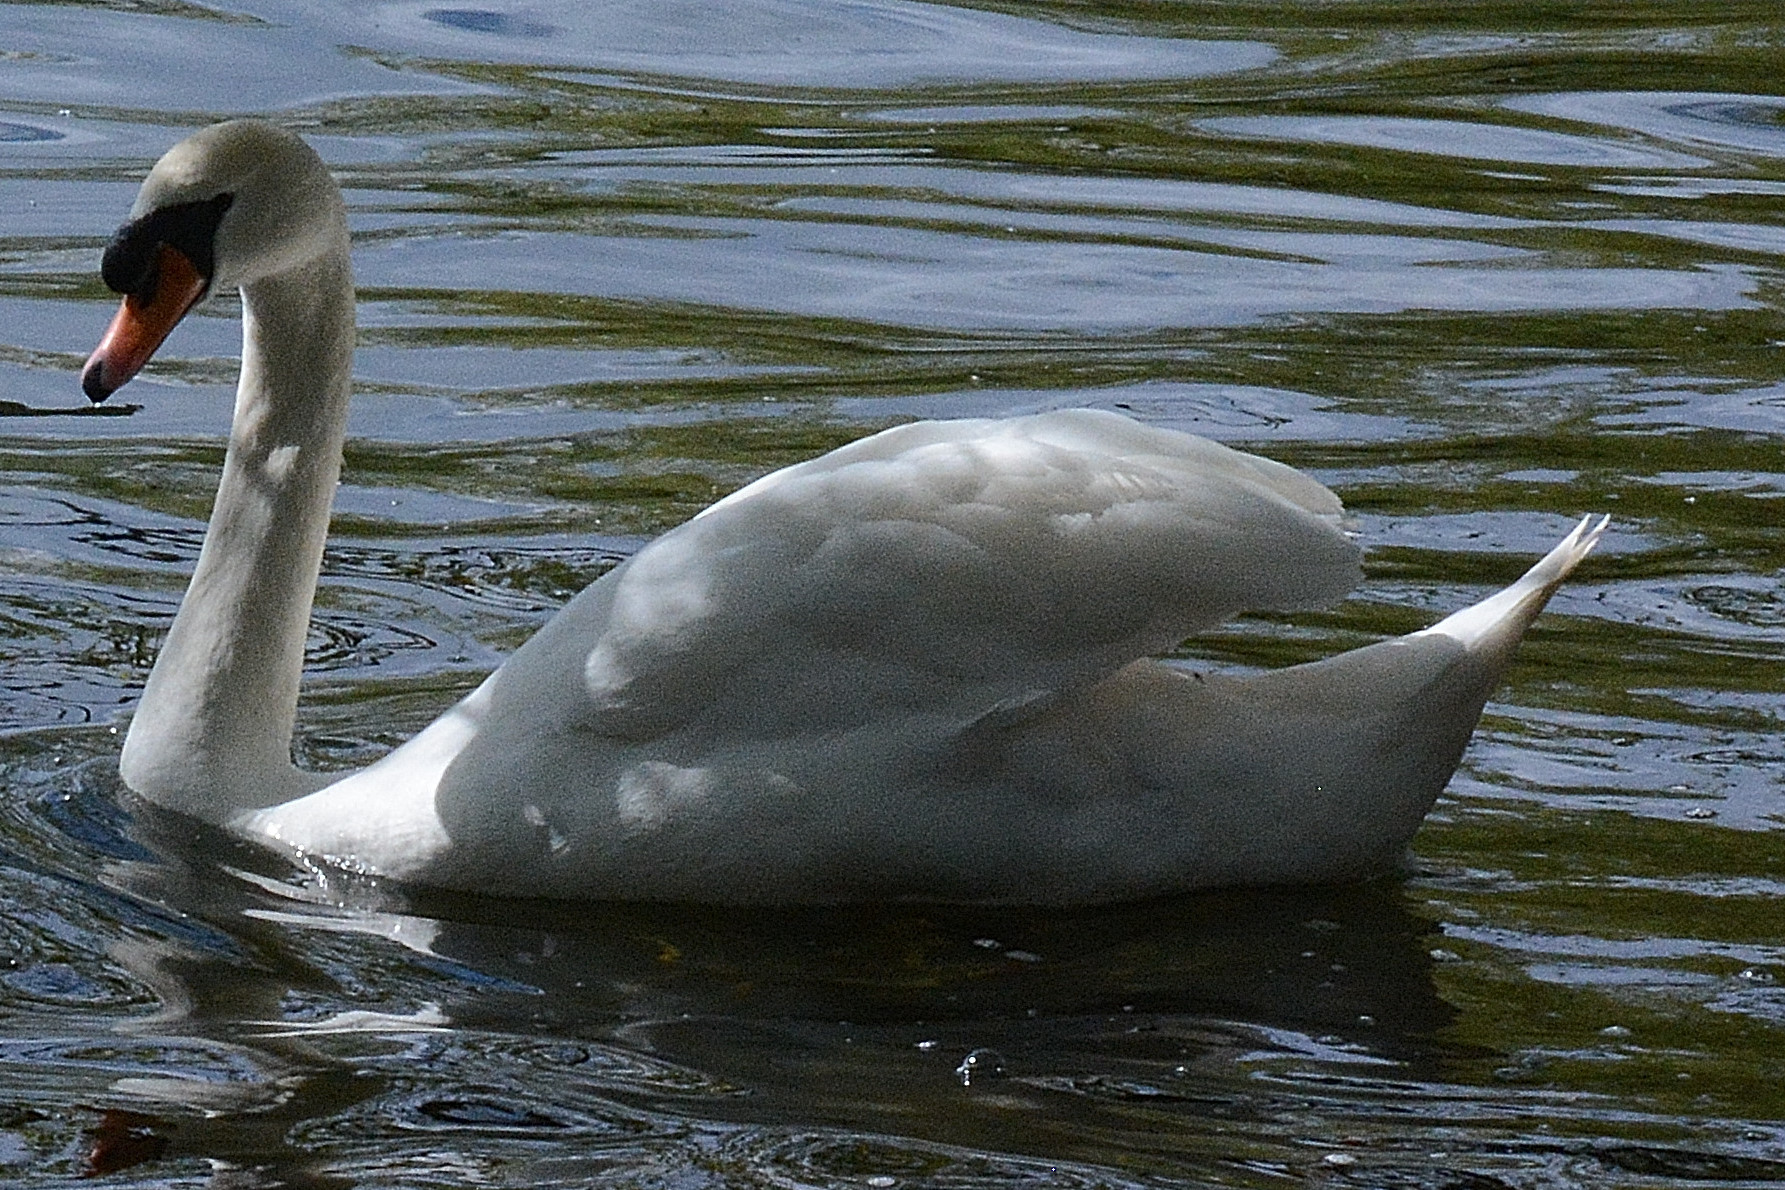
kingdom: Animalia
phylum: Chordata
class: Aves
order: Anseriformes
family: Anatidae
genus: Cygnus
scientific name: Cygnus olor
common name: Mute swan
